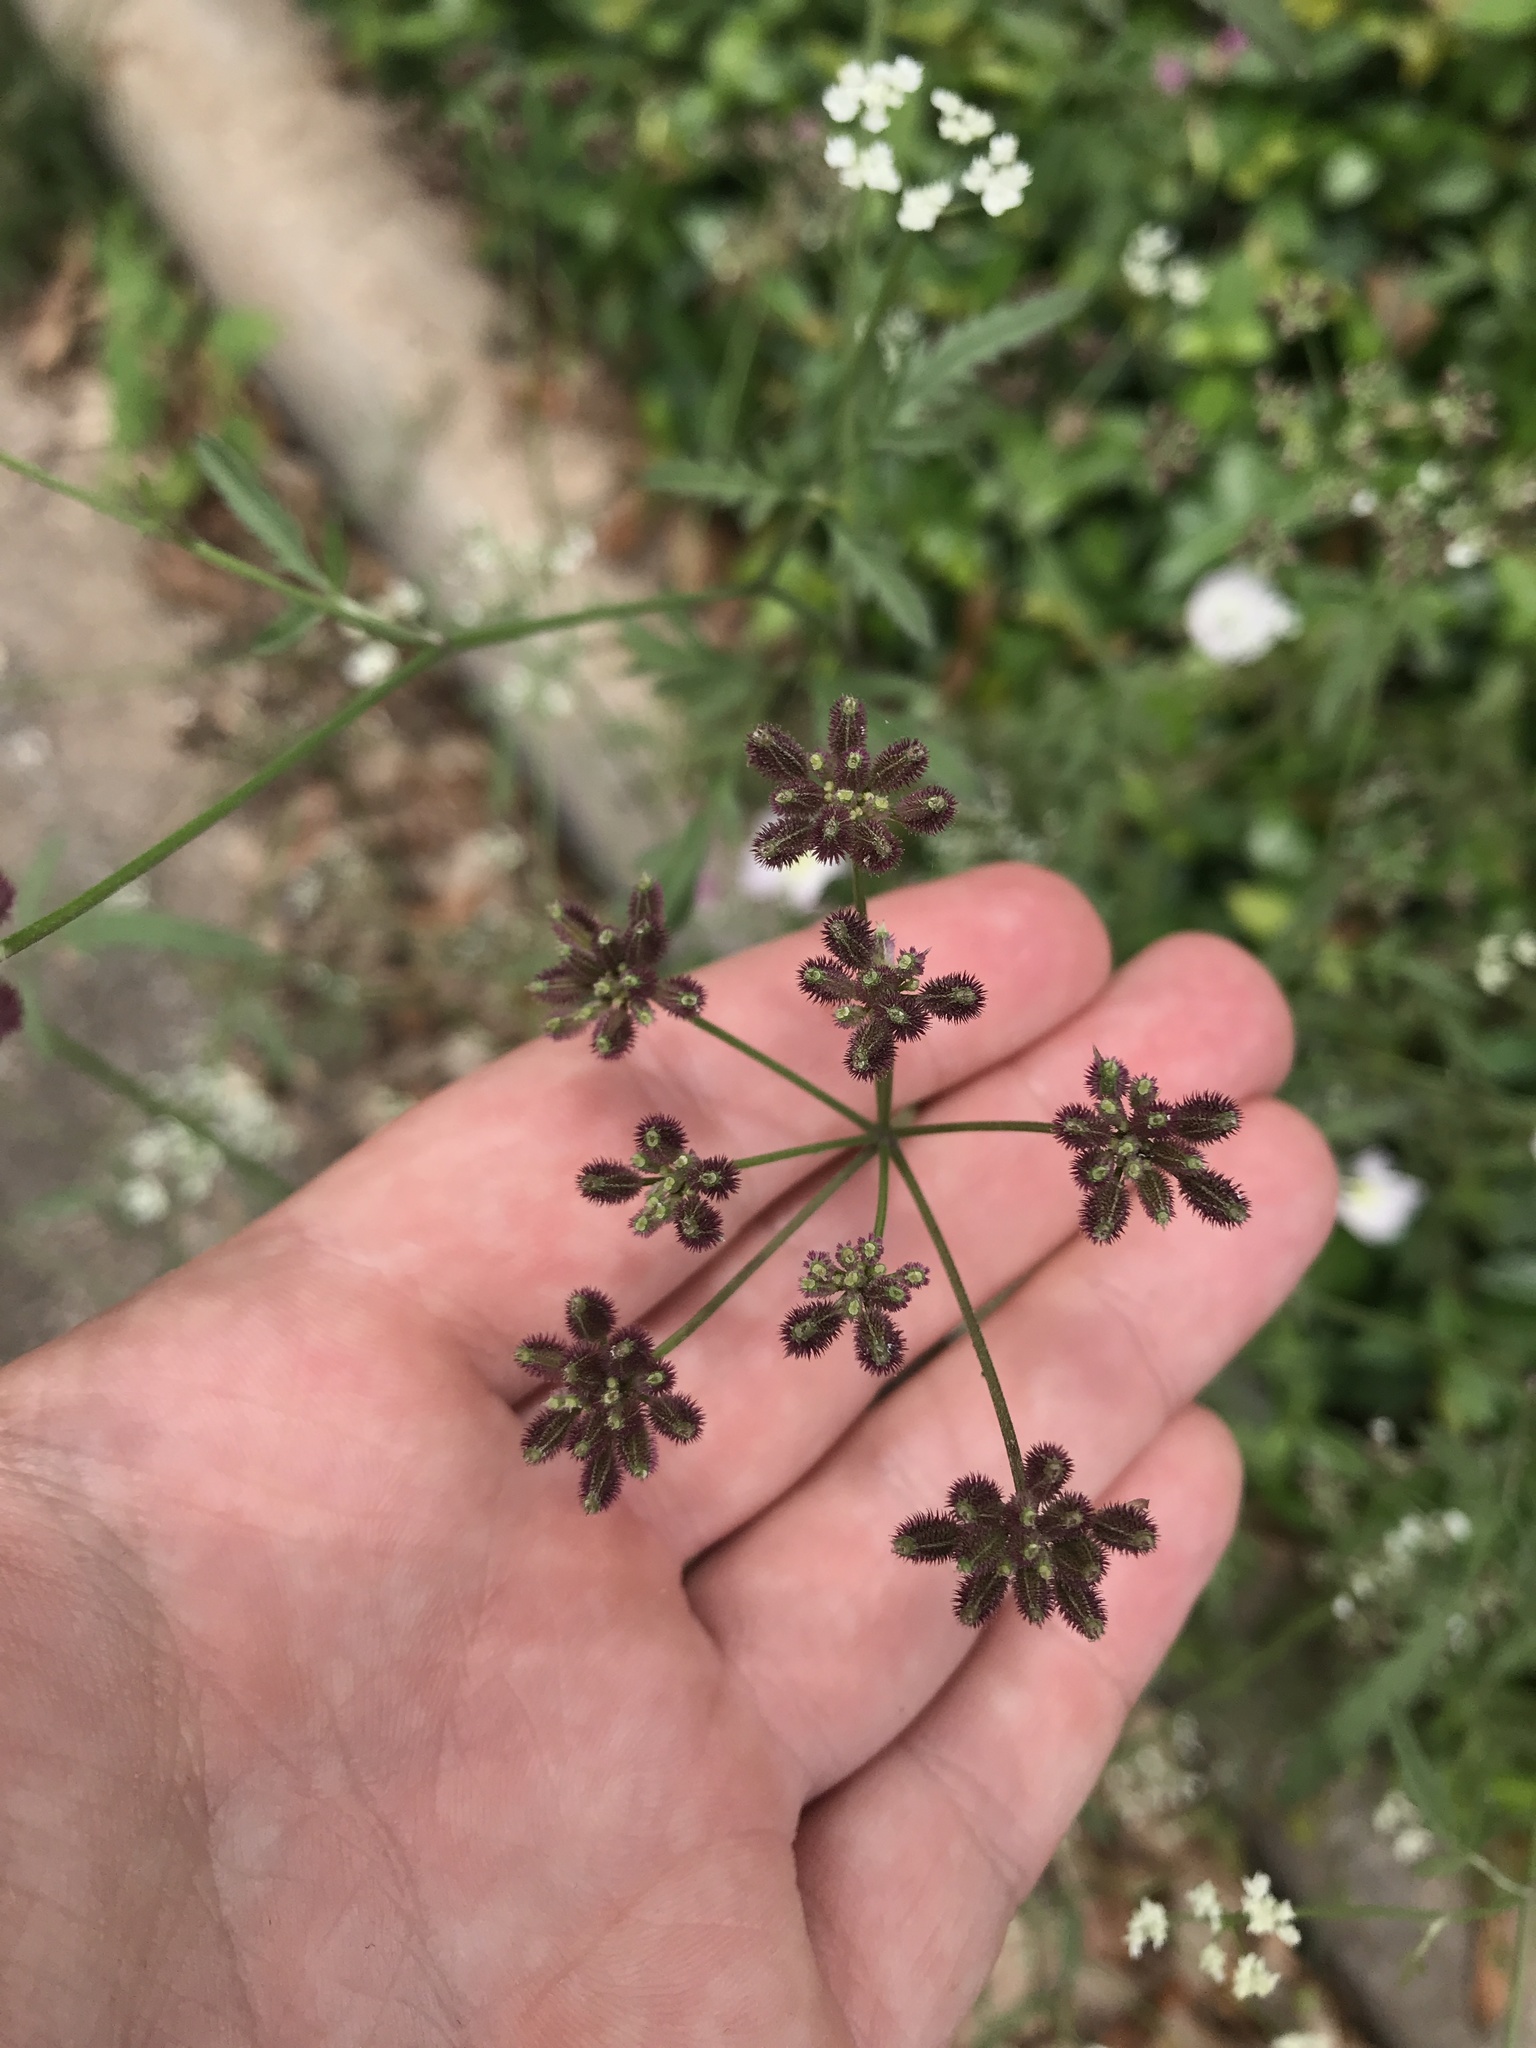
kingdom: Plantae
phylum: Tracheophyta
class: Magnoliopsida
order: Apiales
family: Apiaceae
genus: Torilis
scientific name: Torilis arvensis
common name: Spreading hedge-parsley
